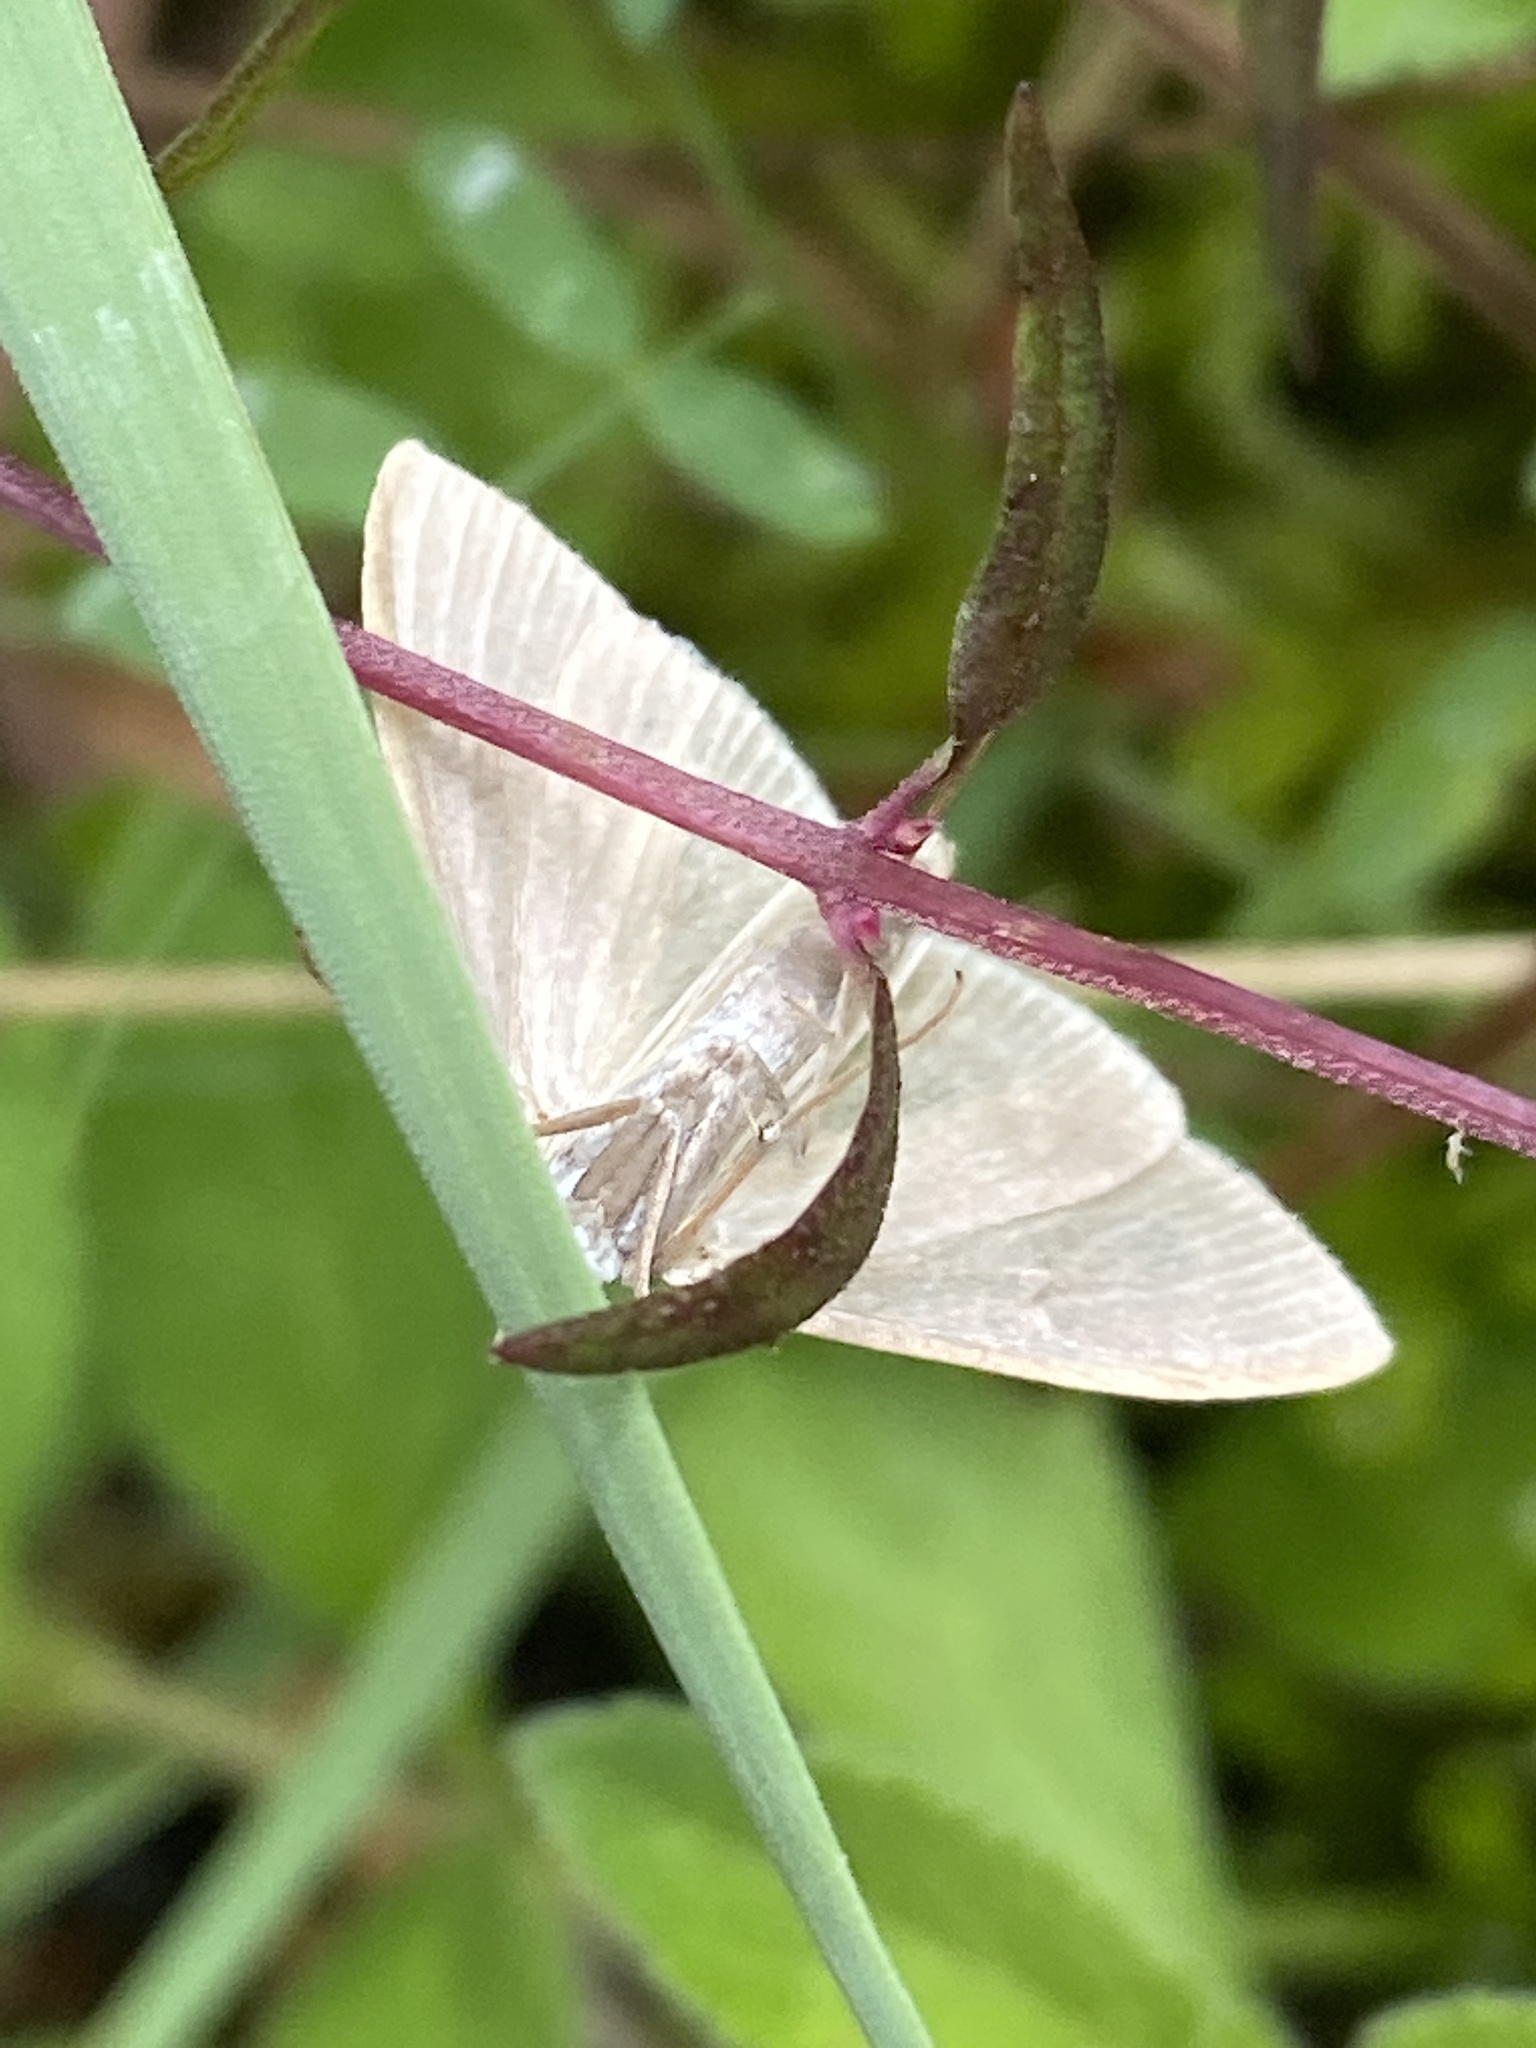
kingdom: Animalia
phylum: Arthropoda
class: Insecta
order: Lepidoptera
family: Crambidae
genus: Anania
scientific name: Anania fuscalis
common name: Cinerous pearl
